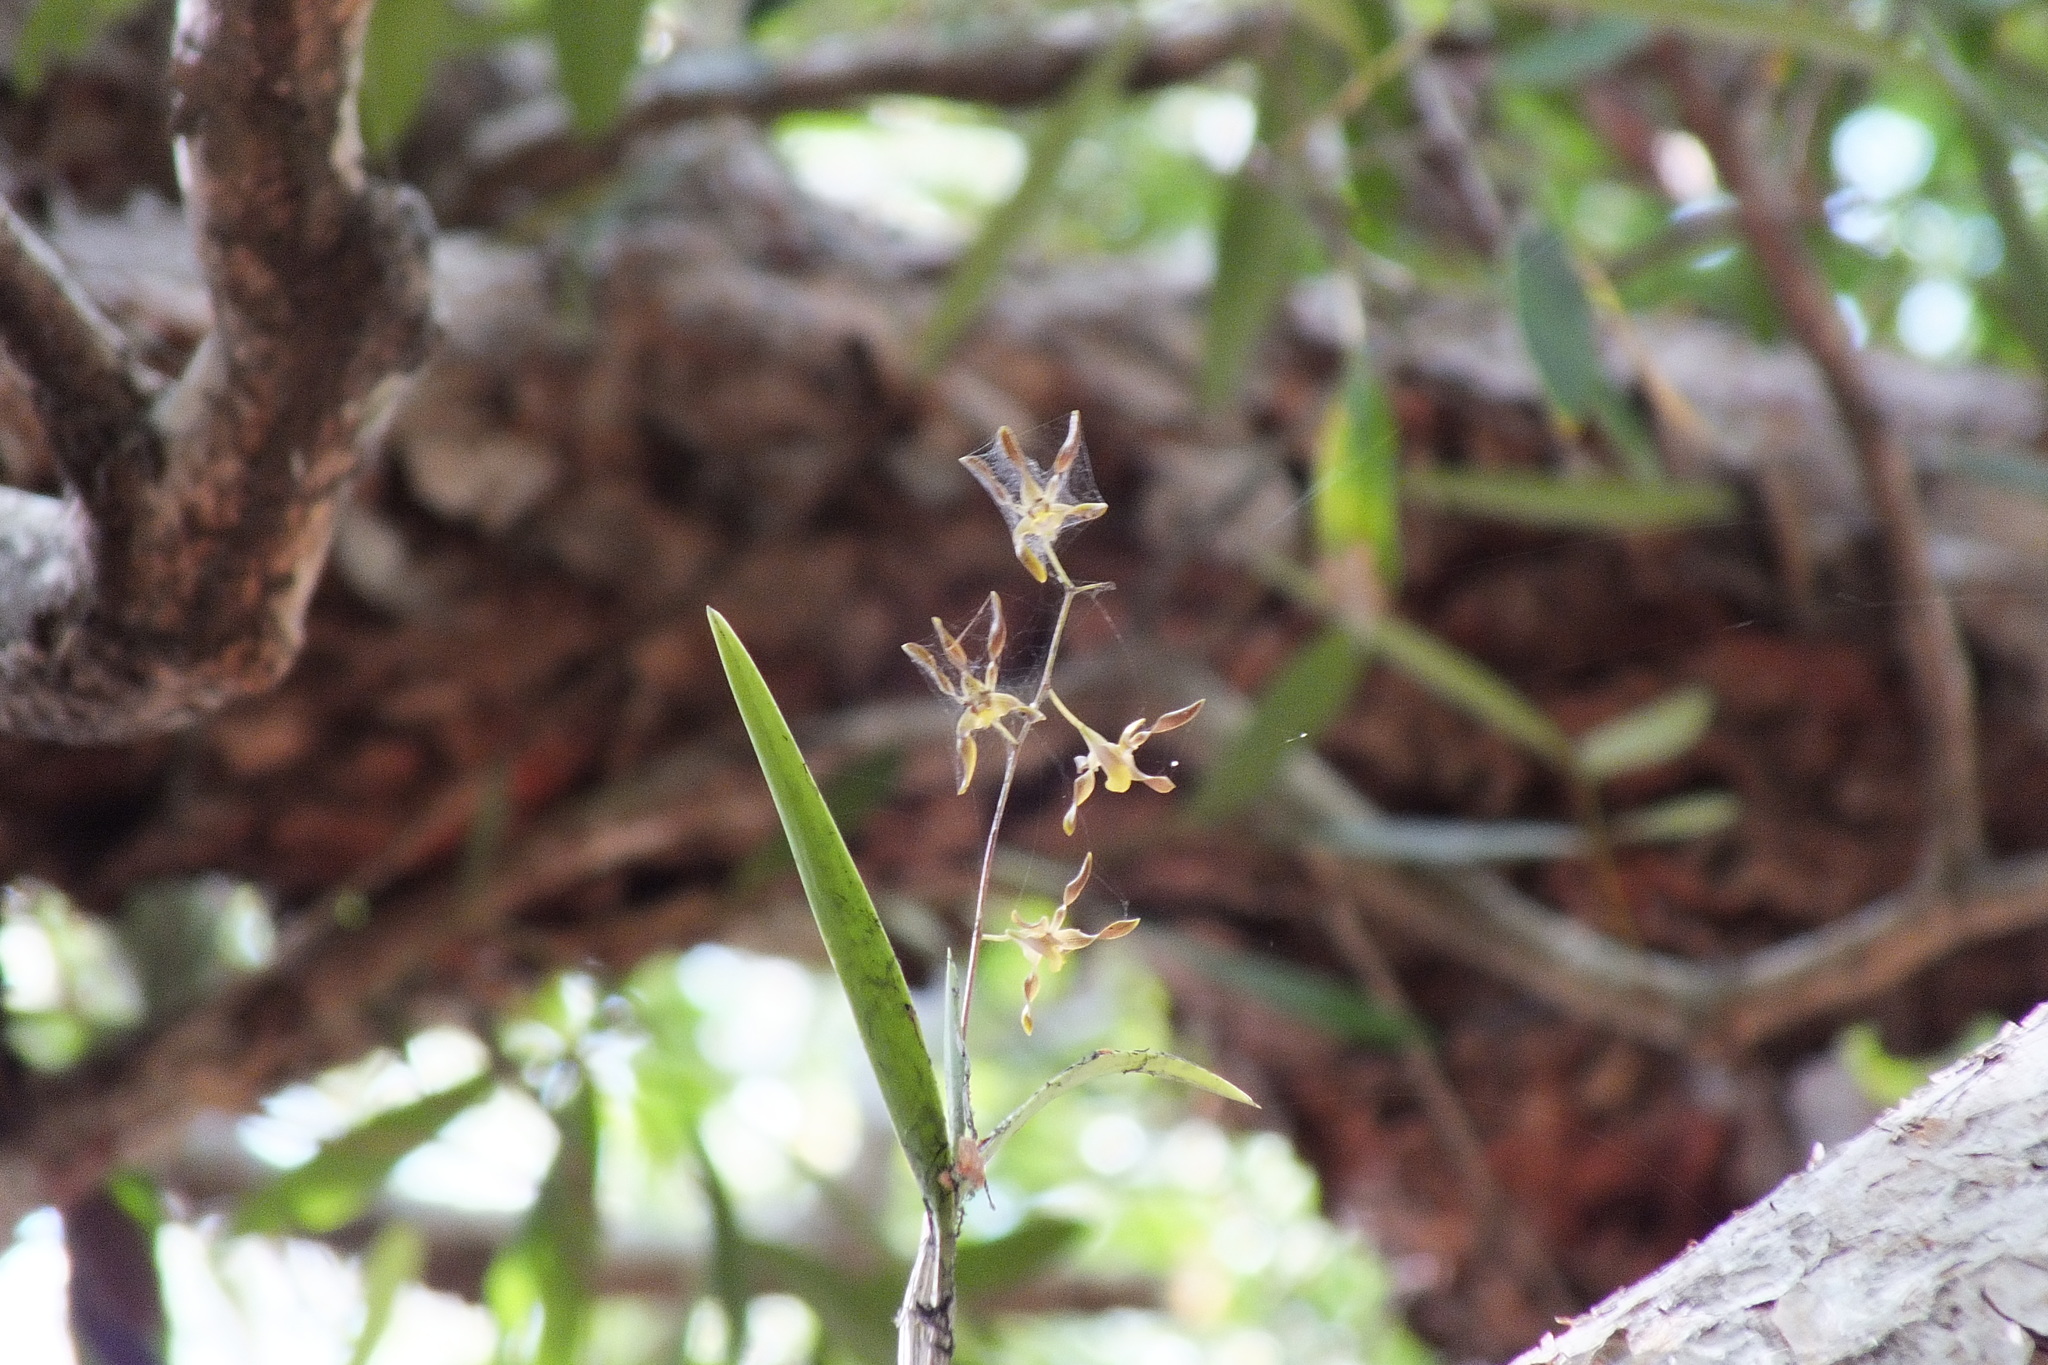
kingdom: Plantae
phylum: Tracheophyta
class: Liliopsida
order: Asparagales
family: Orchidaceae
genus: Dendrobium
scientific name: Dendrobium johannis
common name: Chocolate tea tree orchid
